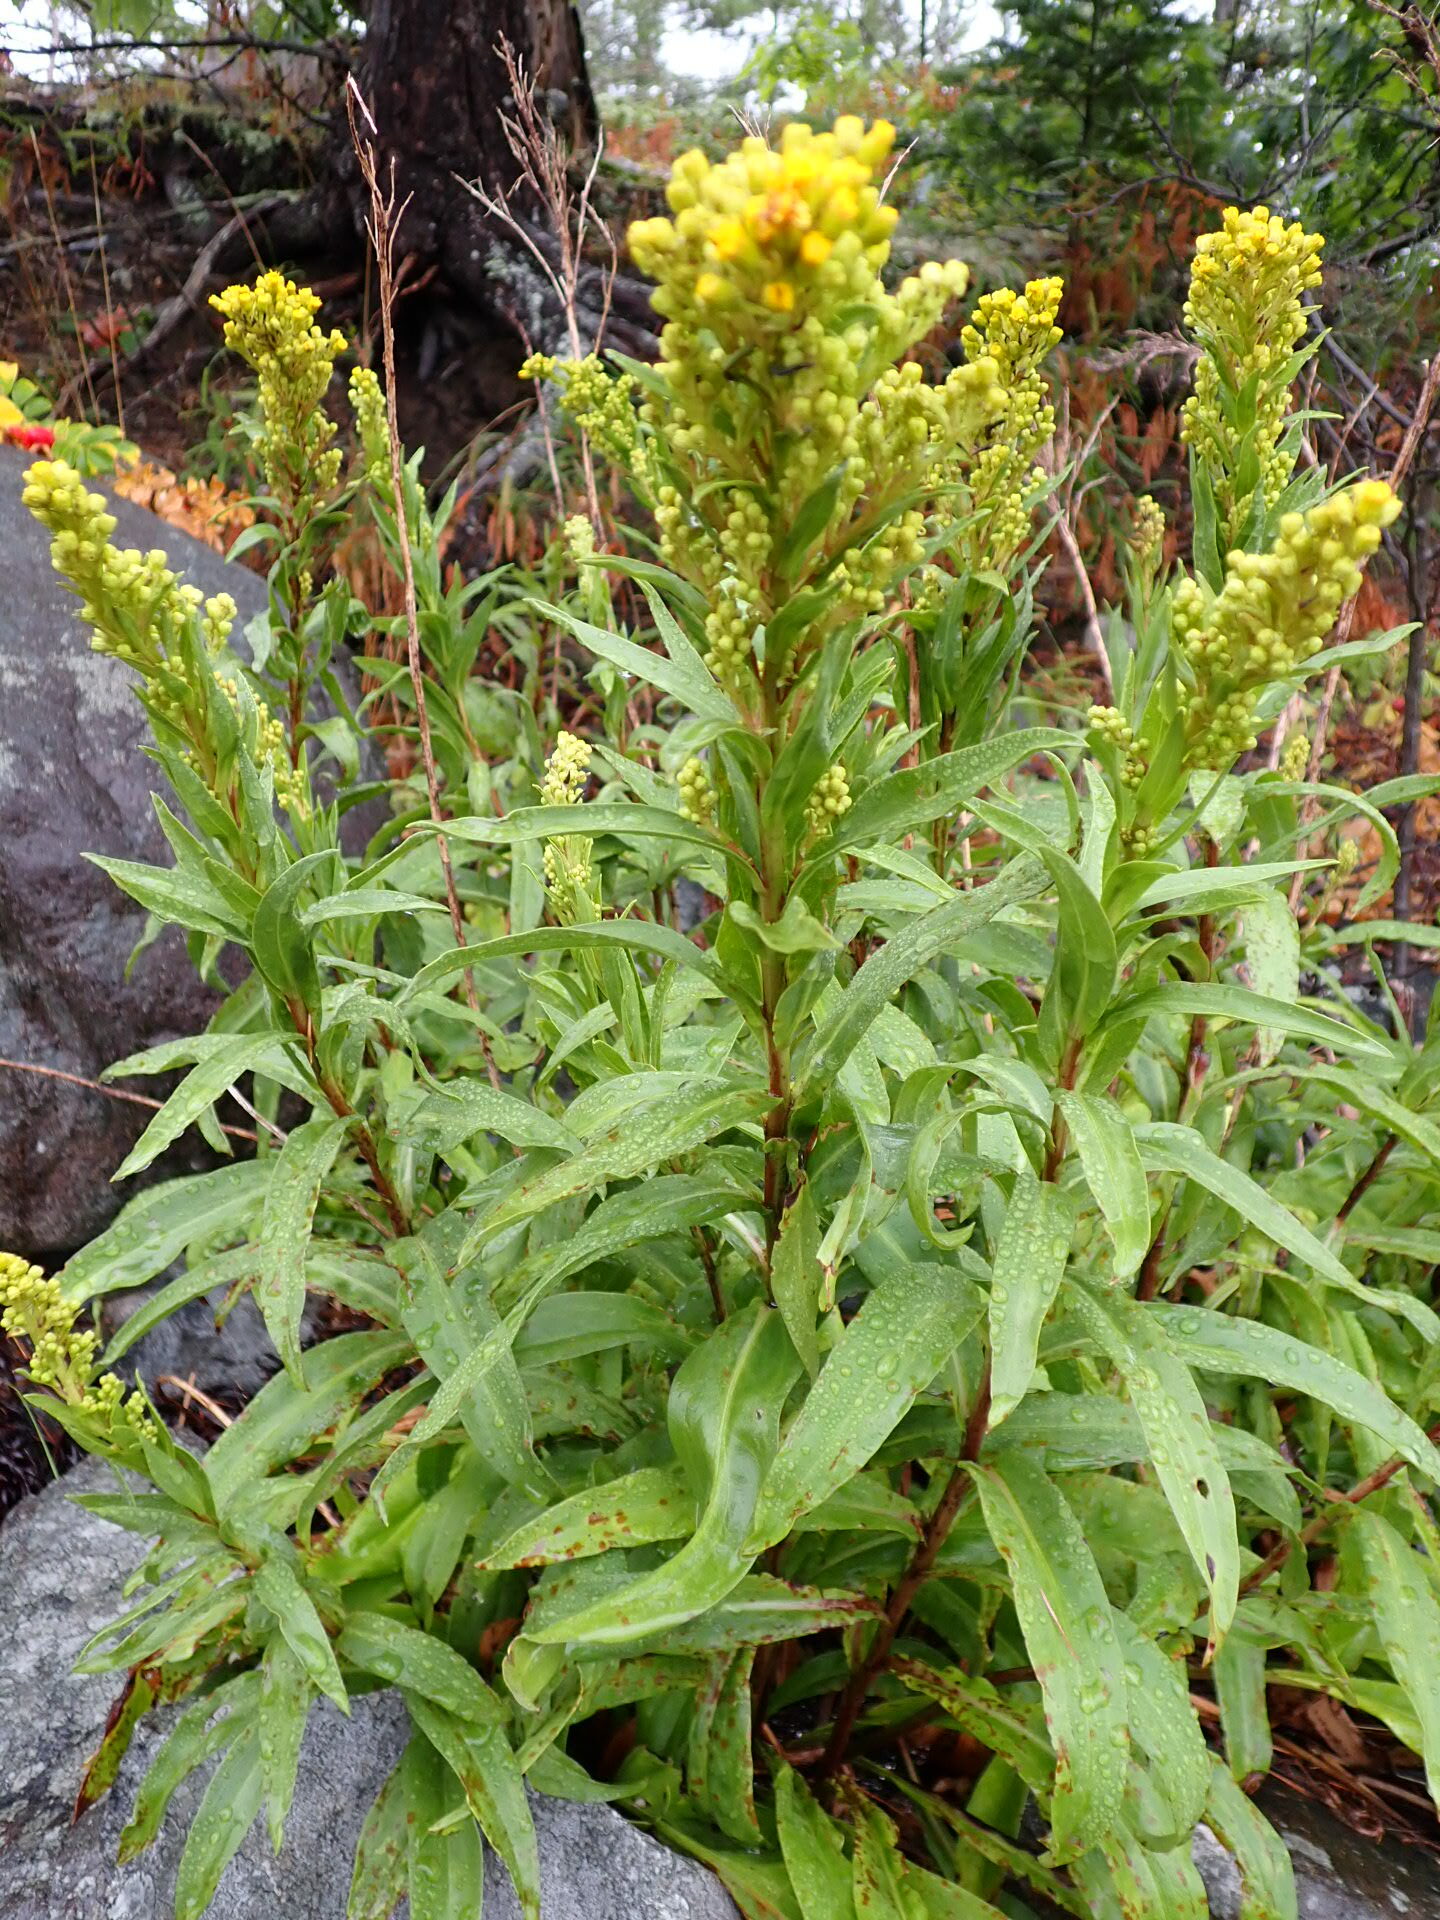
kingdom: Plantae
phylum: Tracheophyta
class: Magnoliopsida
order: Asterales
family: Asteraceae
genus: Solidago
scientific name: Solidago sempervirens
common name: Salt-marsh goldenrod
